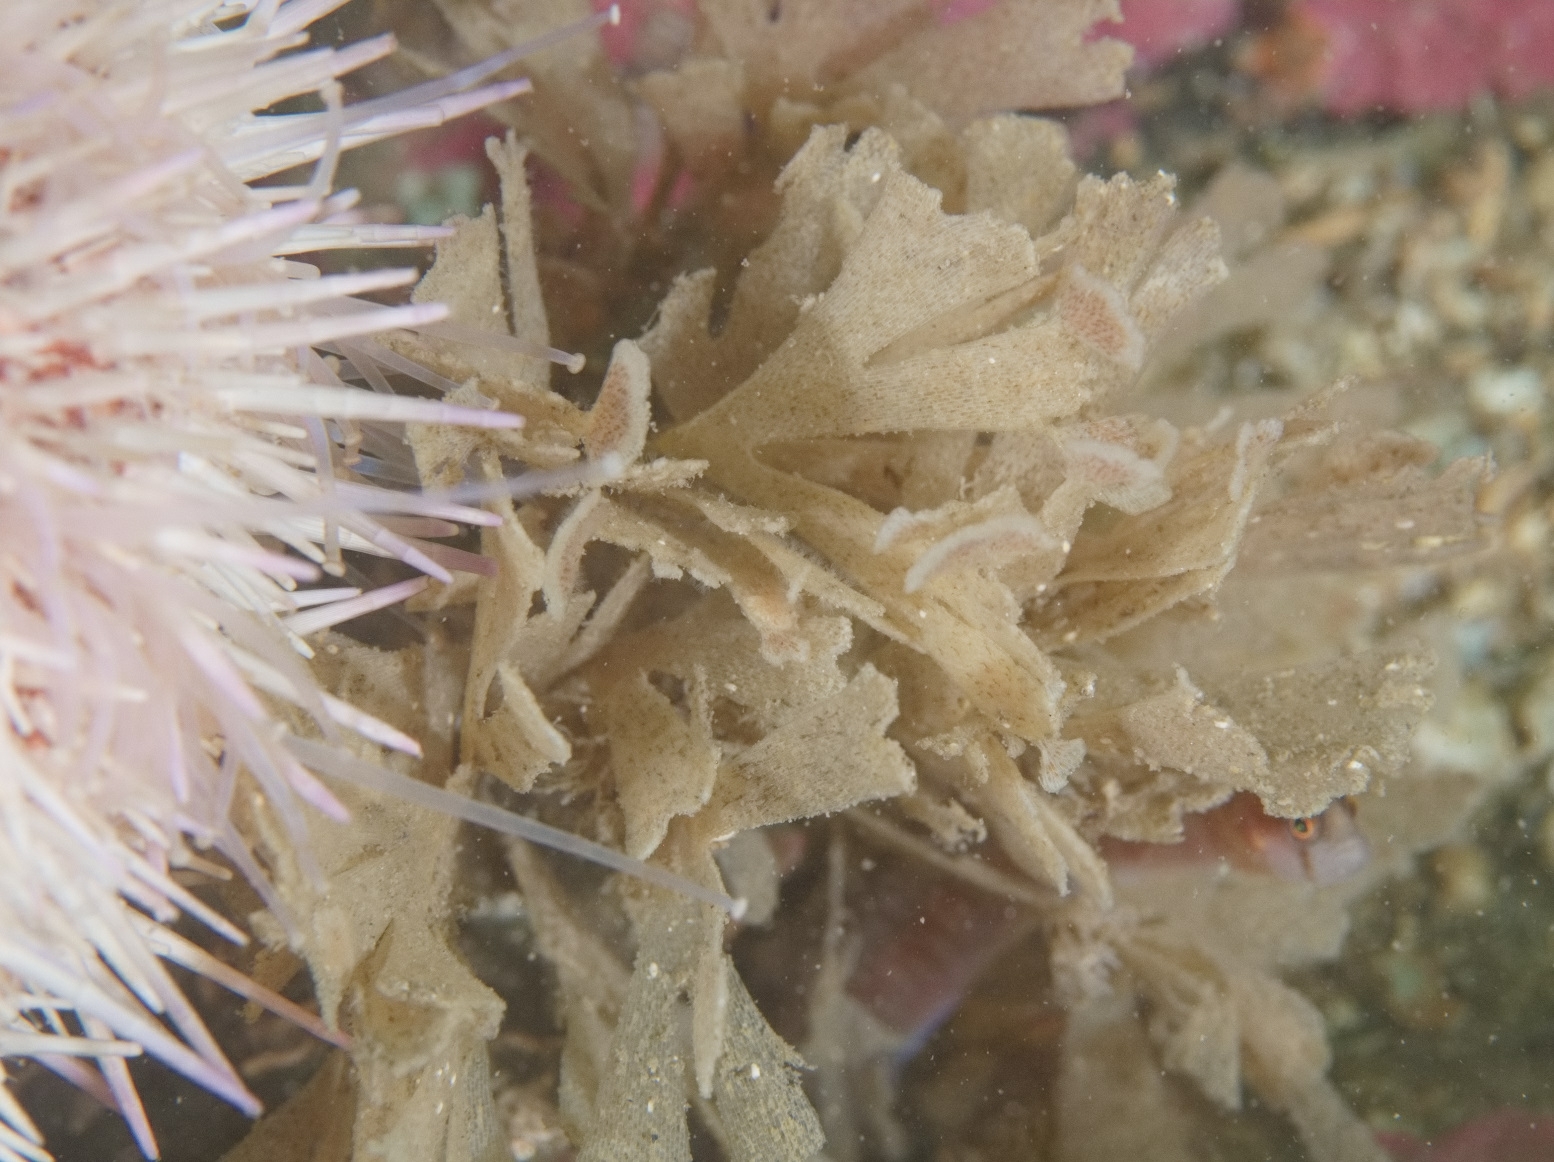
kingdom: Animalia
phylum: Bryozoa
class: Gymnolaemata
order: Cheilostomatida
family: Flustridae
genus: Flustra
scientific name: Flustra foliacea
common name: Hornwrack
